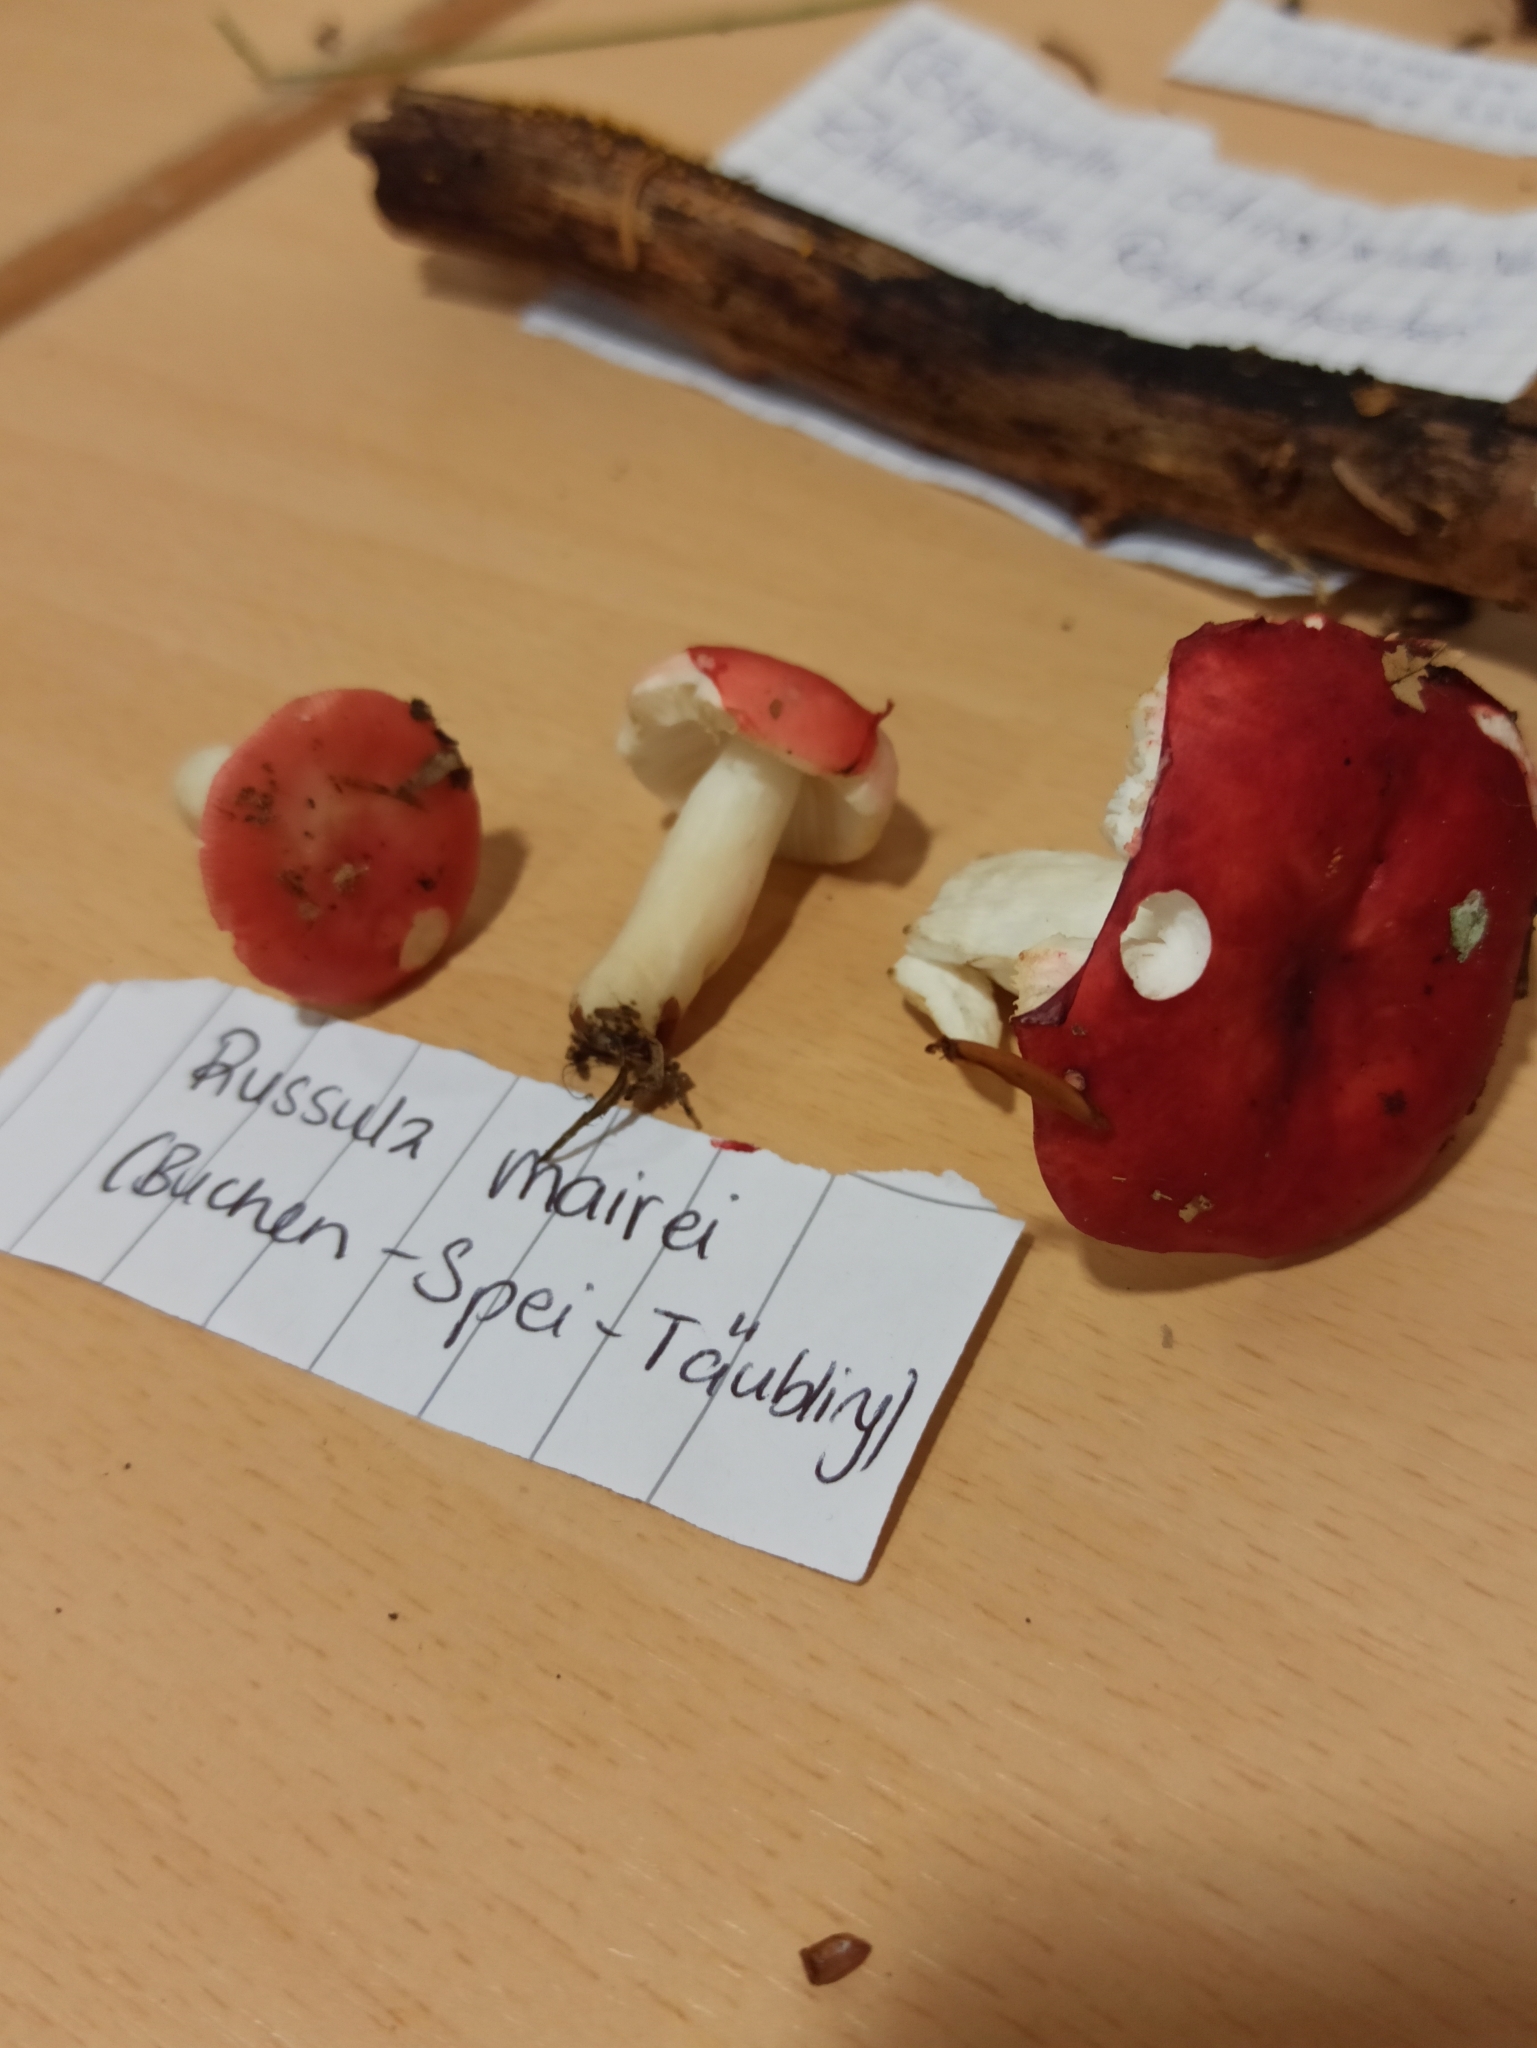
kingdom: Fungi
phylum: Basidiomycota
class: Agaricomycetes
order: Russulales
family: Russulaceae
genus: Russula
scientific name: Russula nobilis
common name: Beechwood sickener
